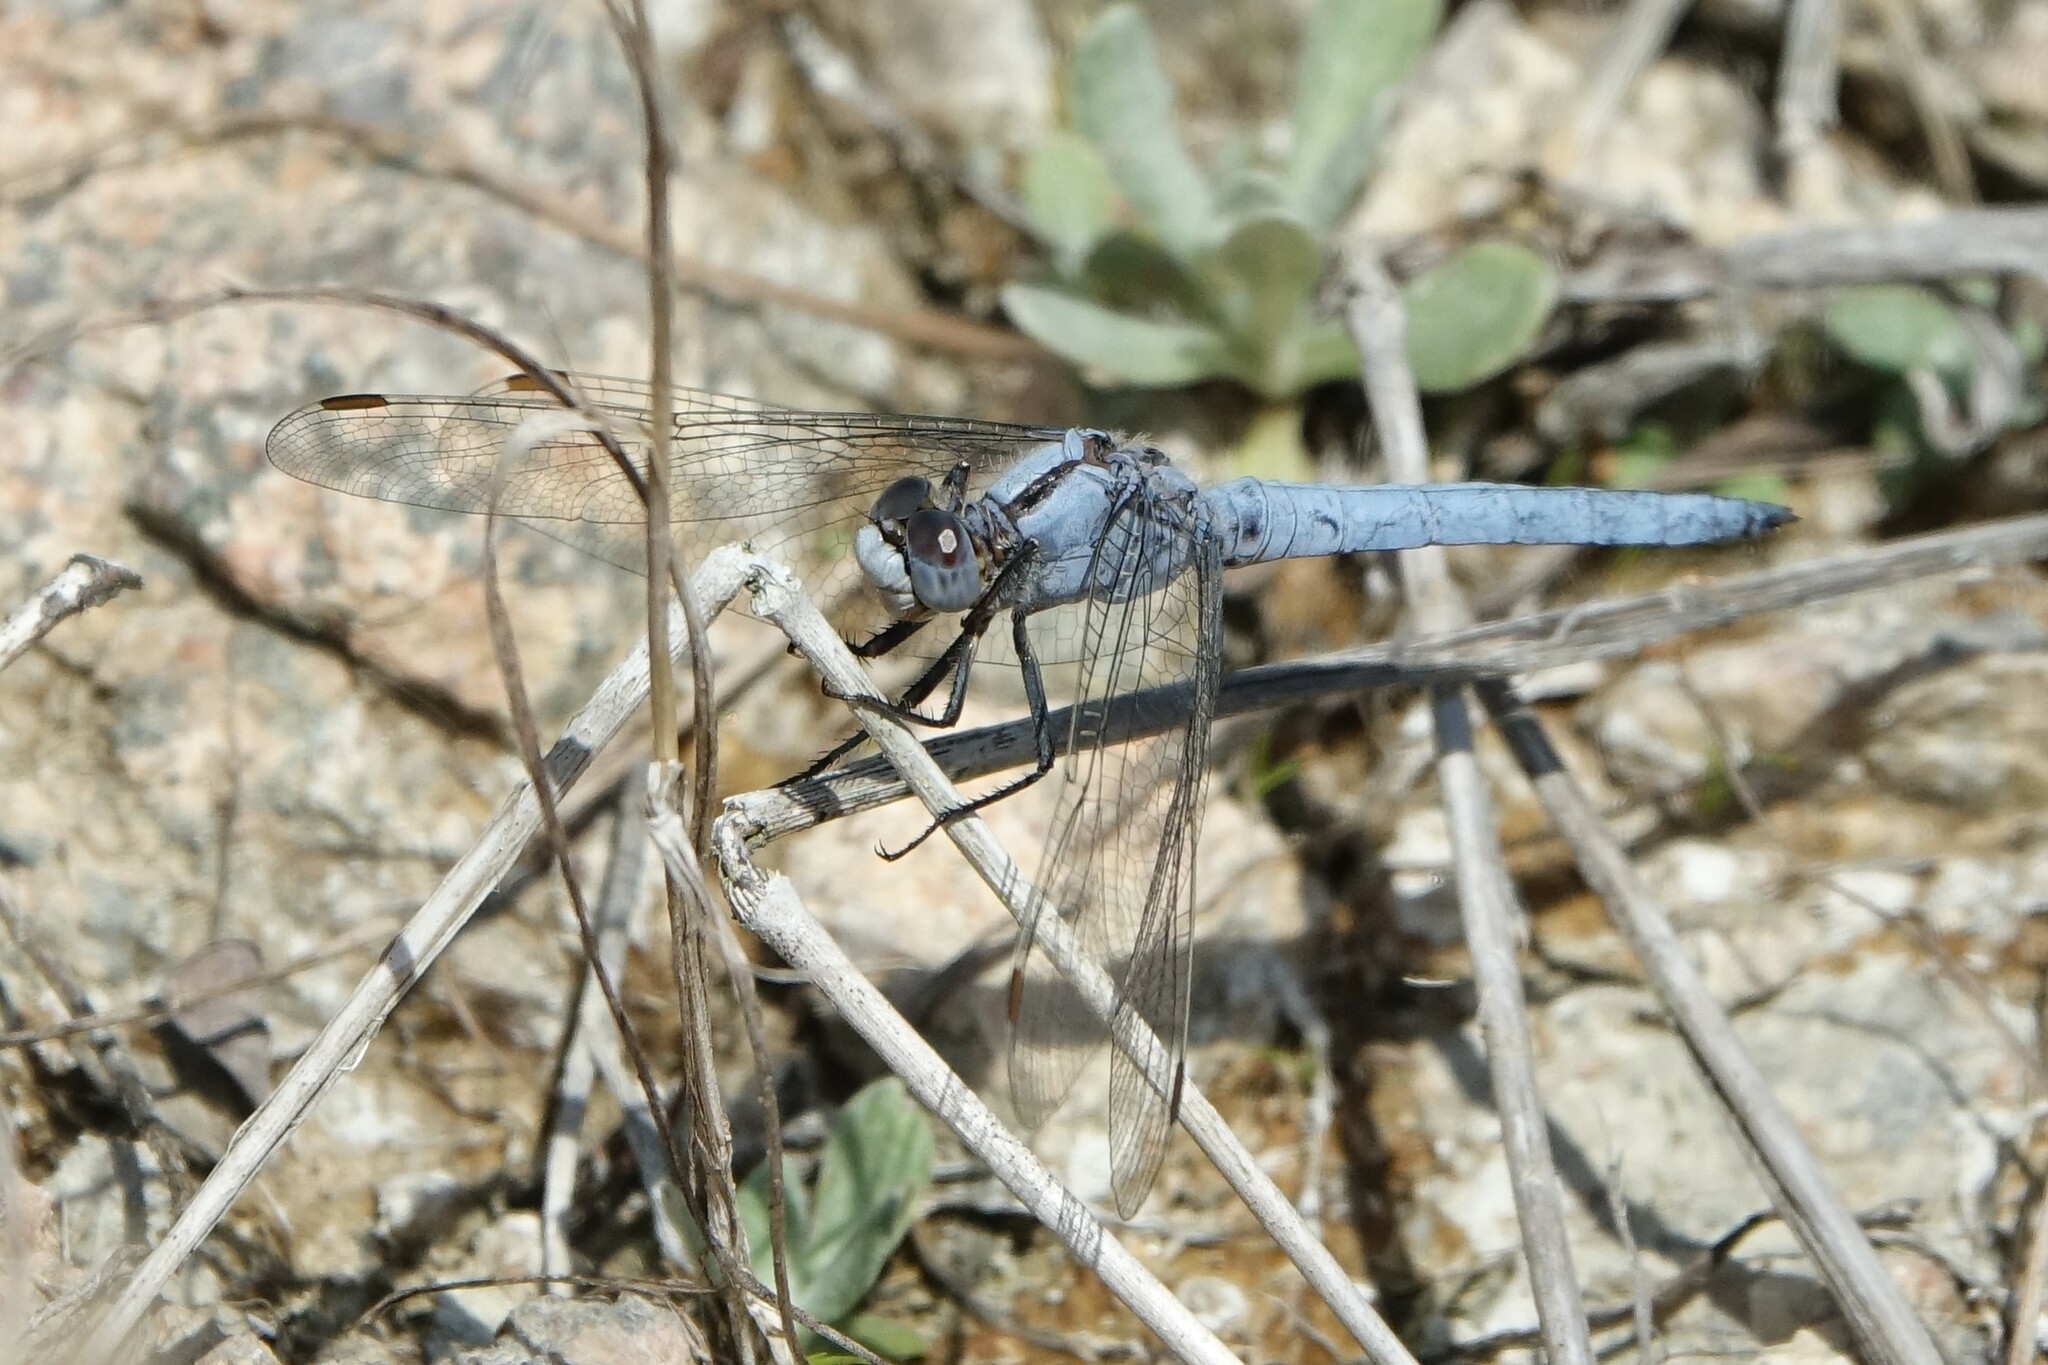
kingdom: Animalia
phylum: Arthropoda
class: Insecta
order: Odonata
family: Libellulidae
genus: Orthetrum
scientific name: Orthetrum brunneum
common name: Southern skimmer
